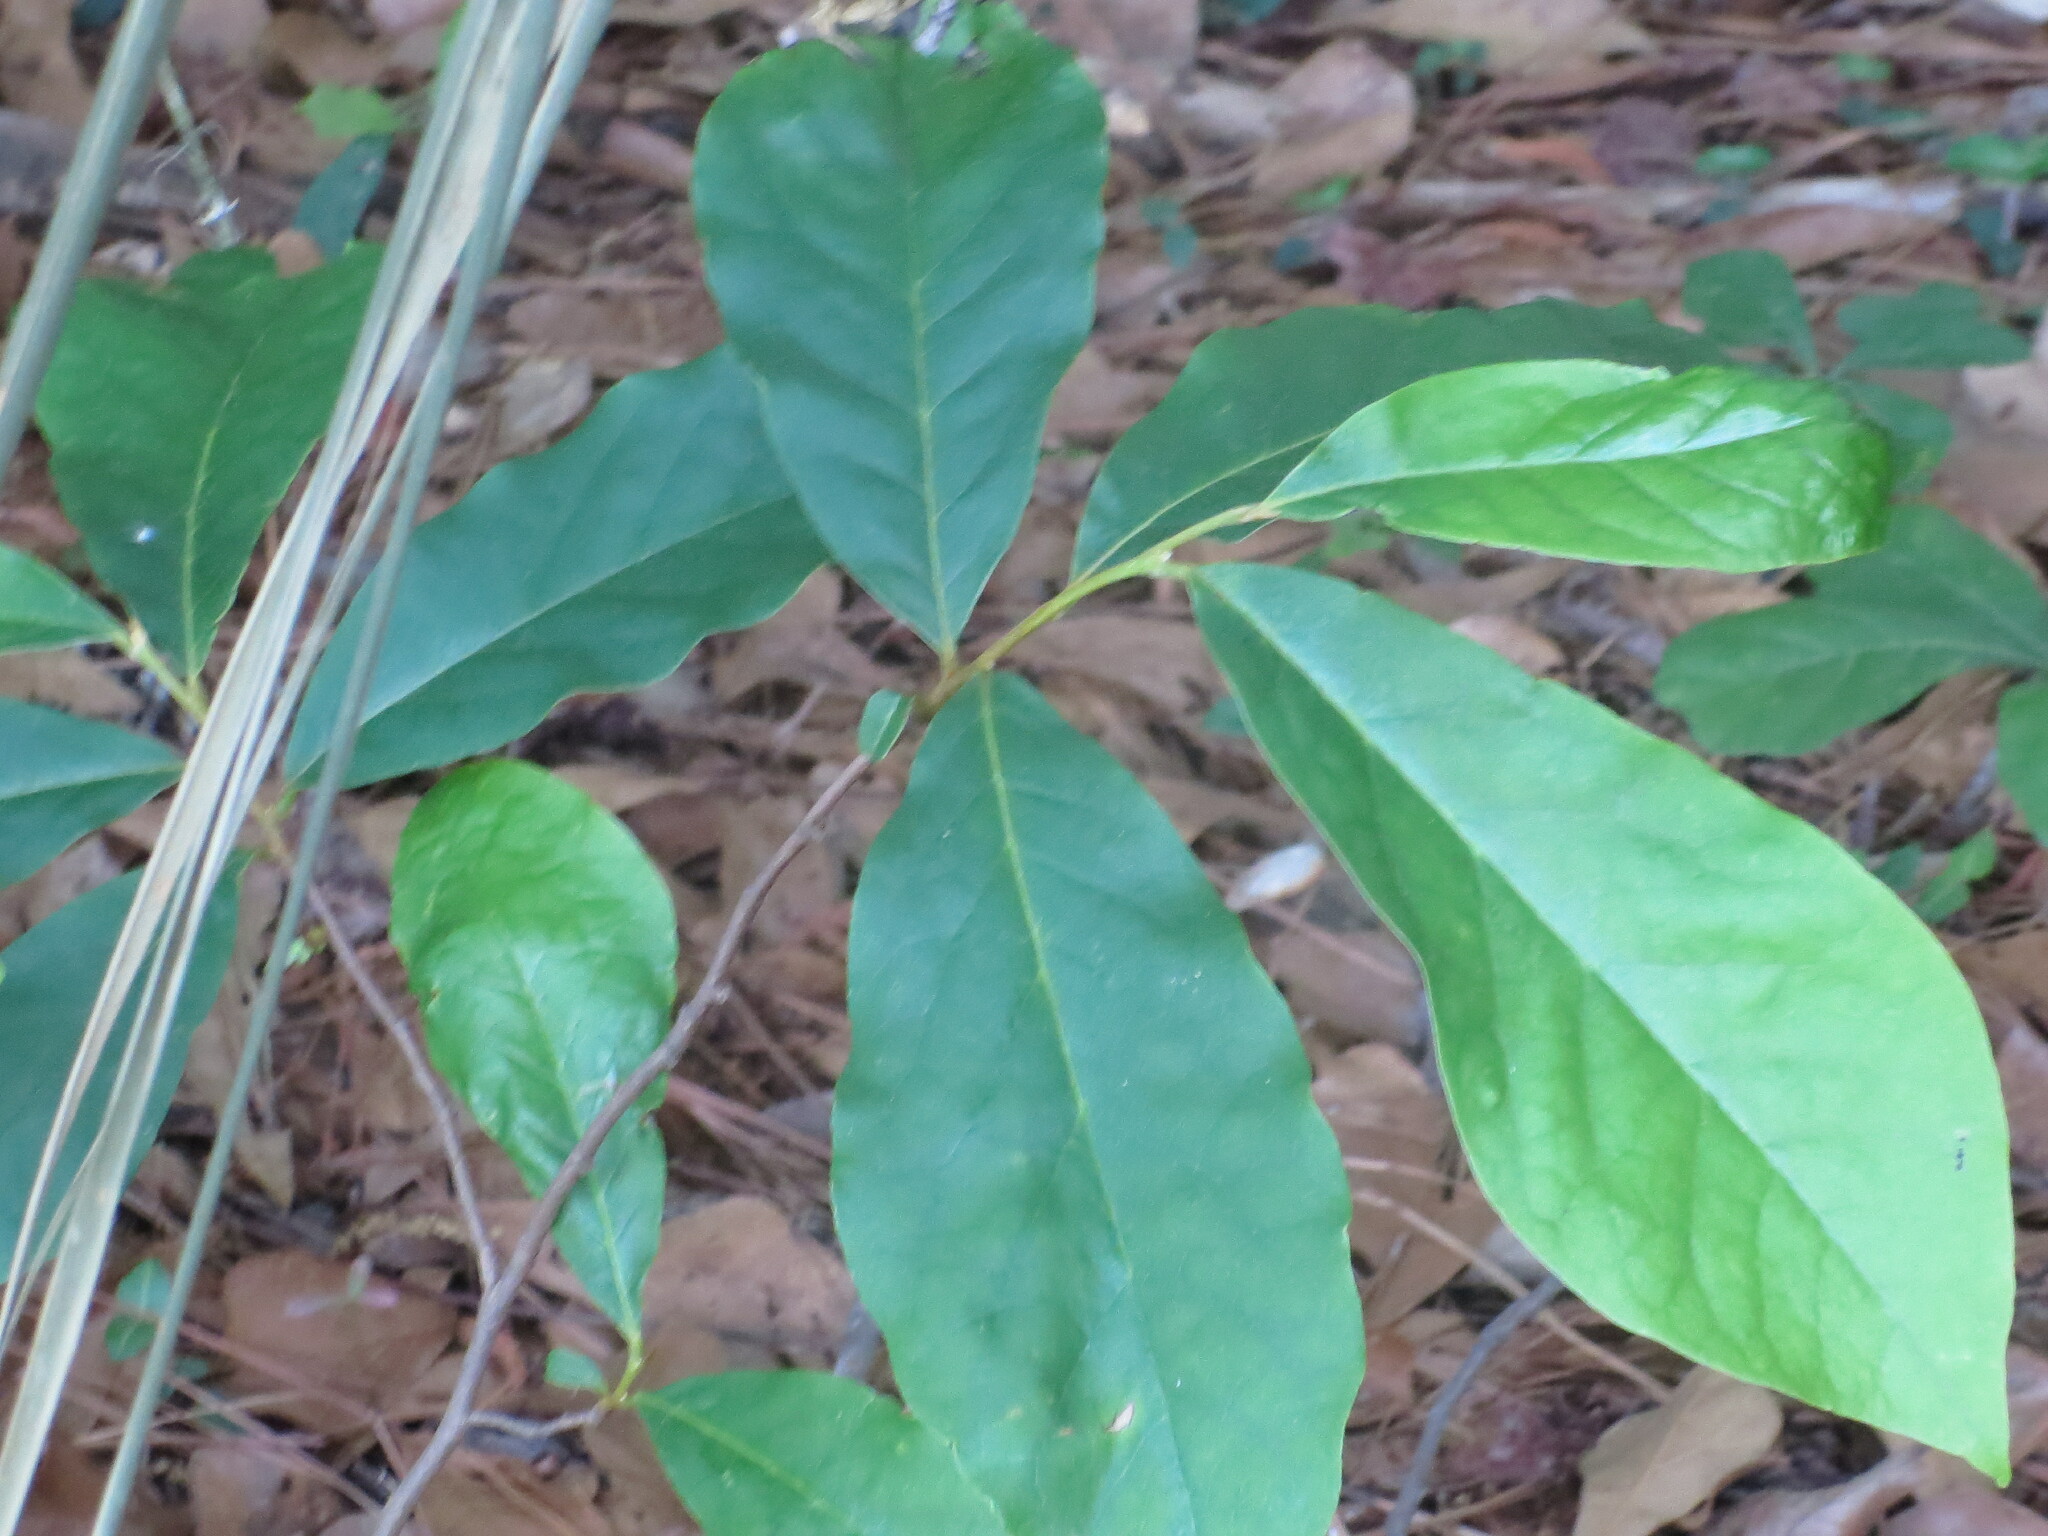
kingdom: Plantae
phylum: Tracheophyta
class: Magnoliopsida
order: Magnoliales
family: Annonaceae
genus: Asimina
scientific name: Asimina parviflora
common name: Dwarf pawpaw
